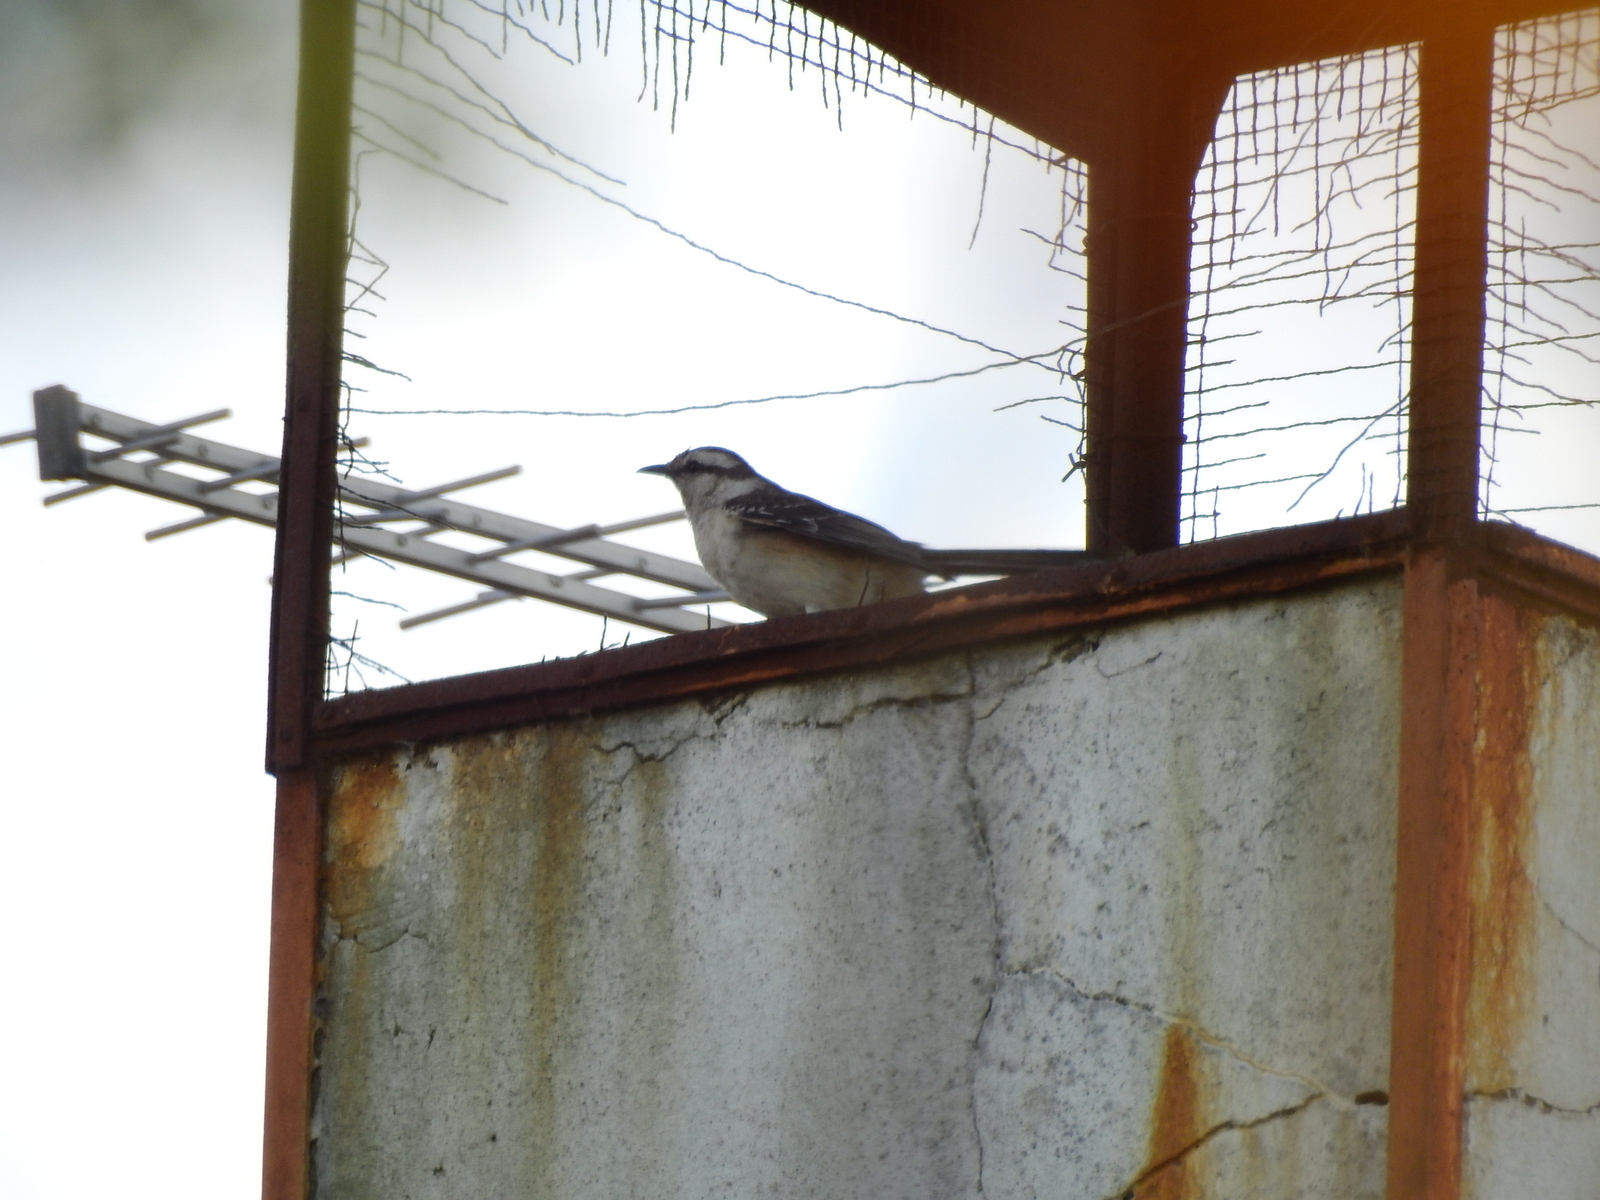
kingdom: Animalia
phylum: Chordata
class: Aves
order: Passeriformes
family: Mimidae
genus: Mimus
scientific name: Mimus saturninus
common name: Chalk-browed mockingbird
